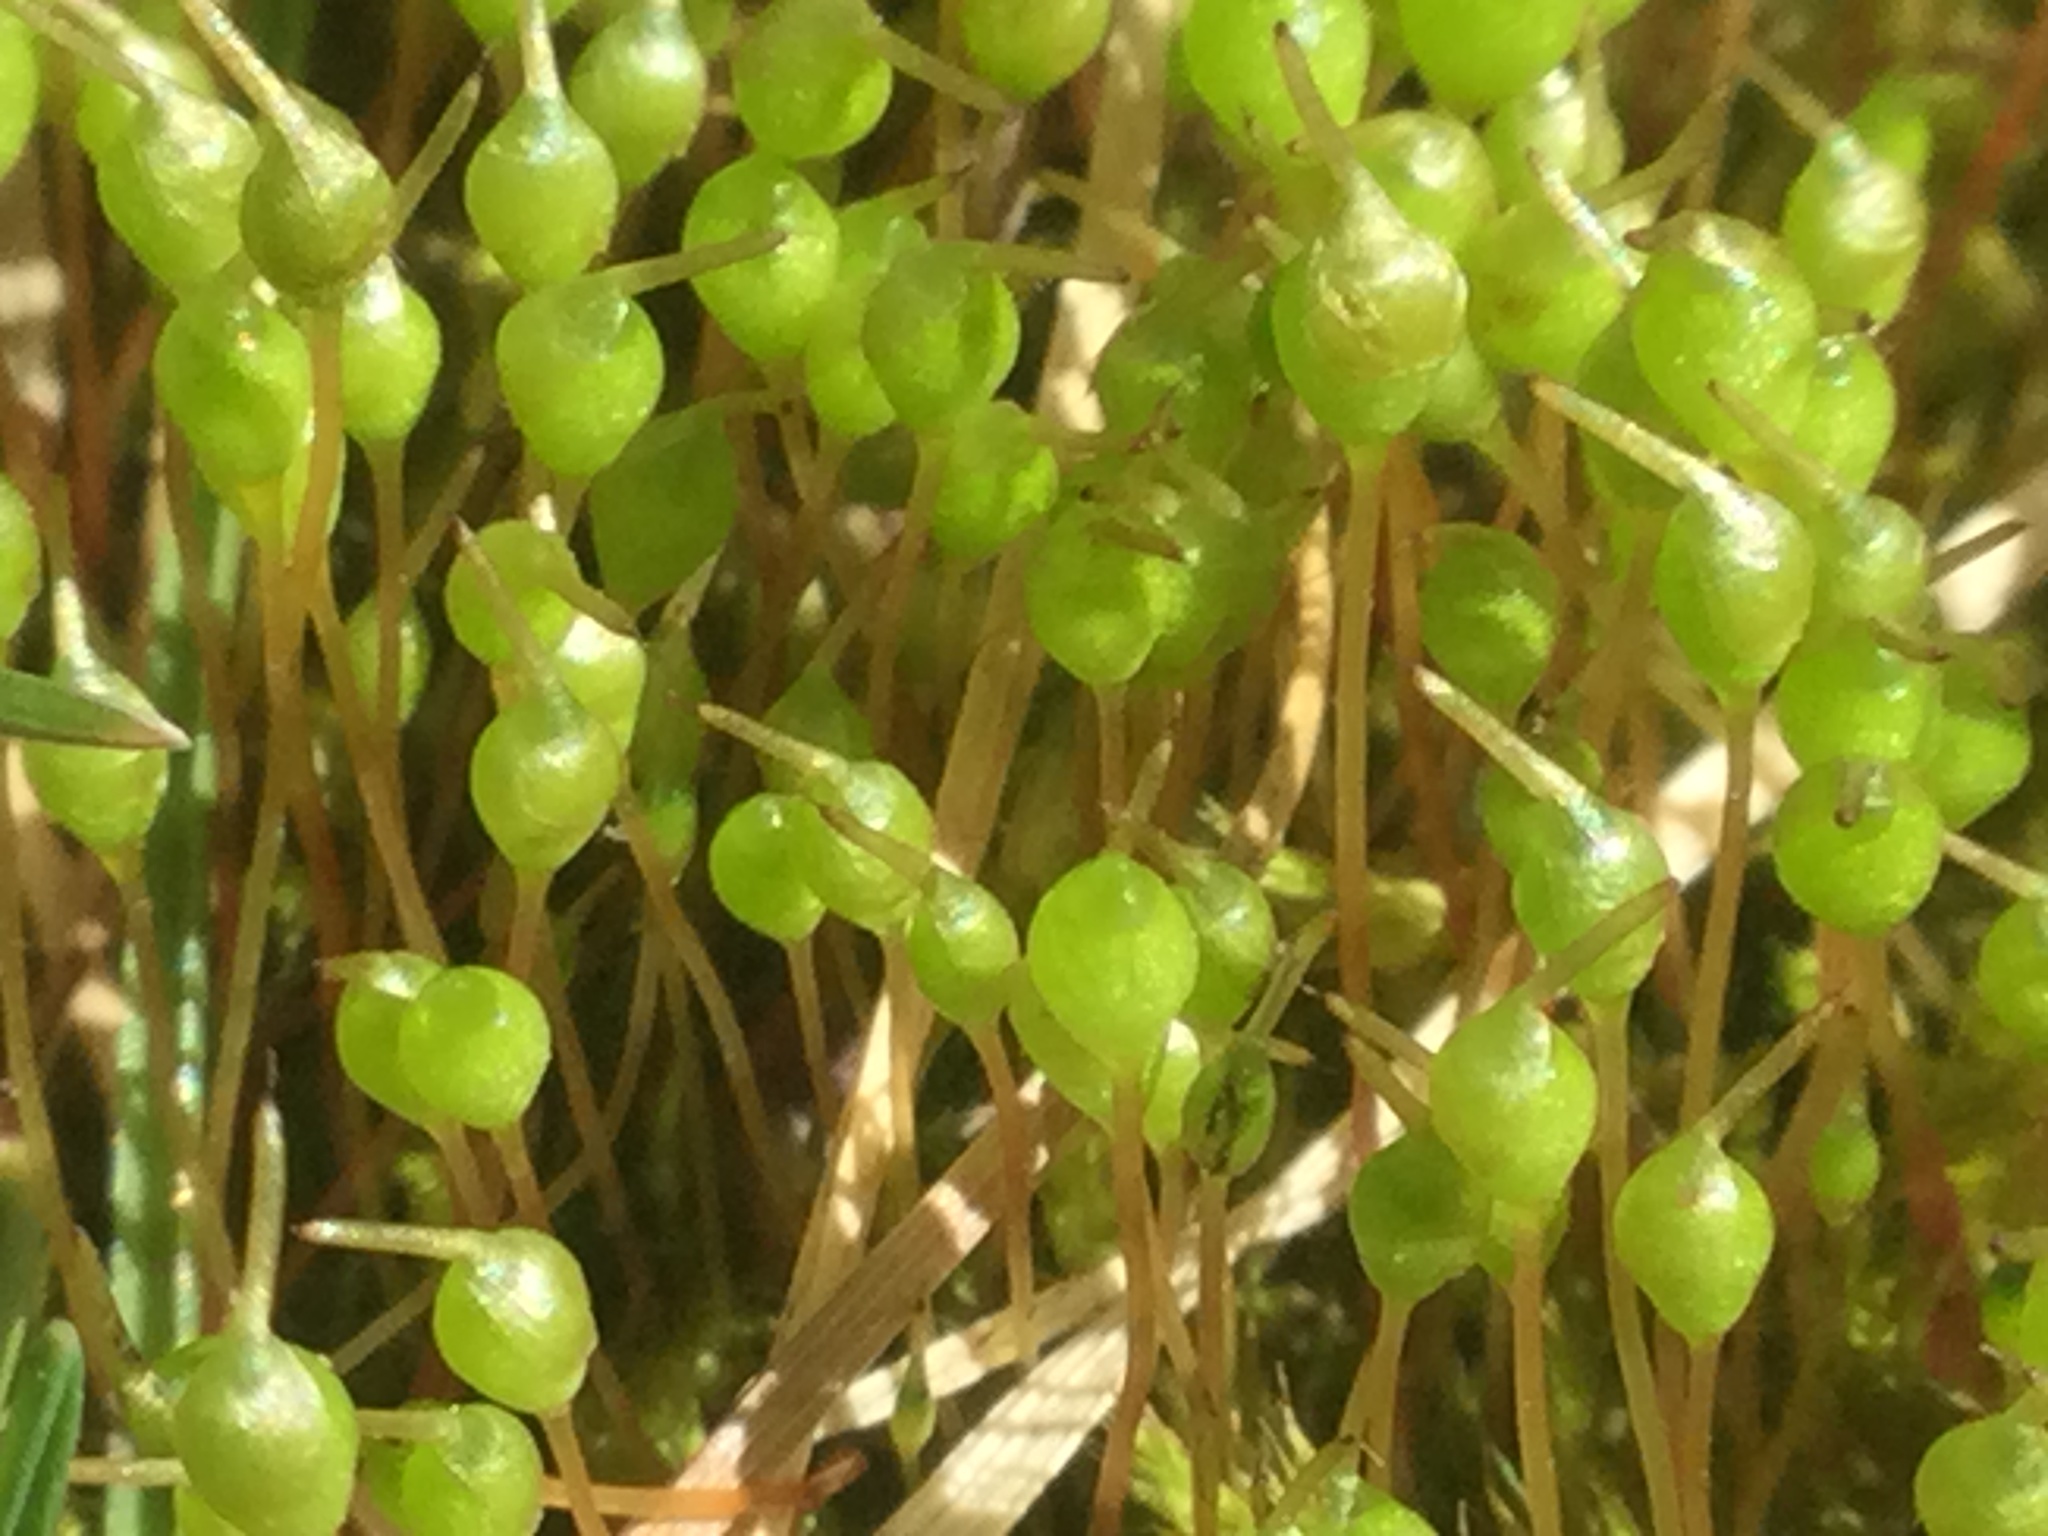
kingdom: Plantae
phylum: Bryophyta
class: Bryopsida
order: Funariales
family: Funariaceae
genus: Physcomitrium
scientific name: Physcomitrium pyriforme
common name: Common bladder-moss
